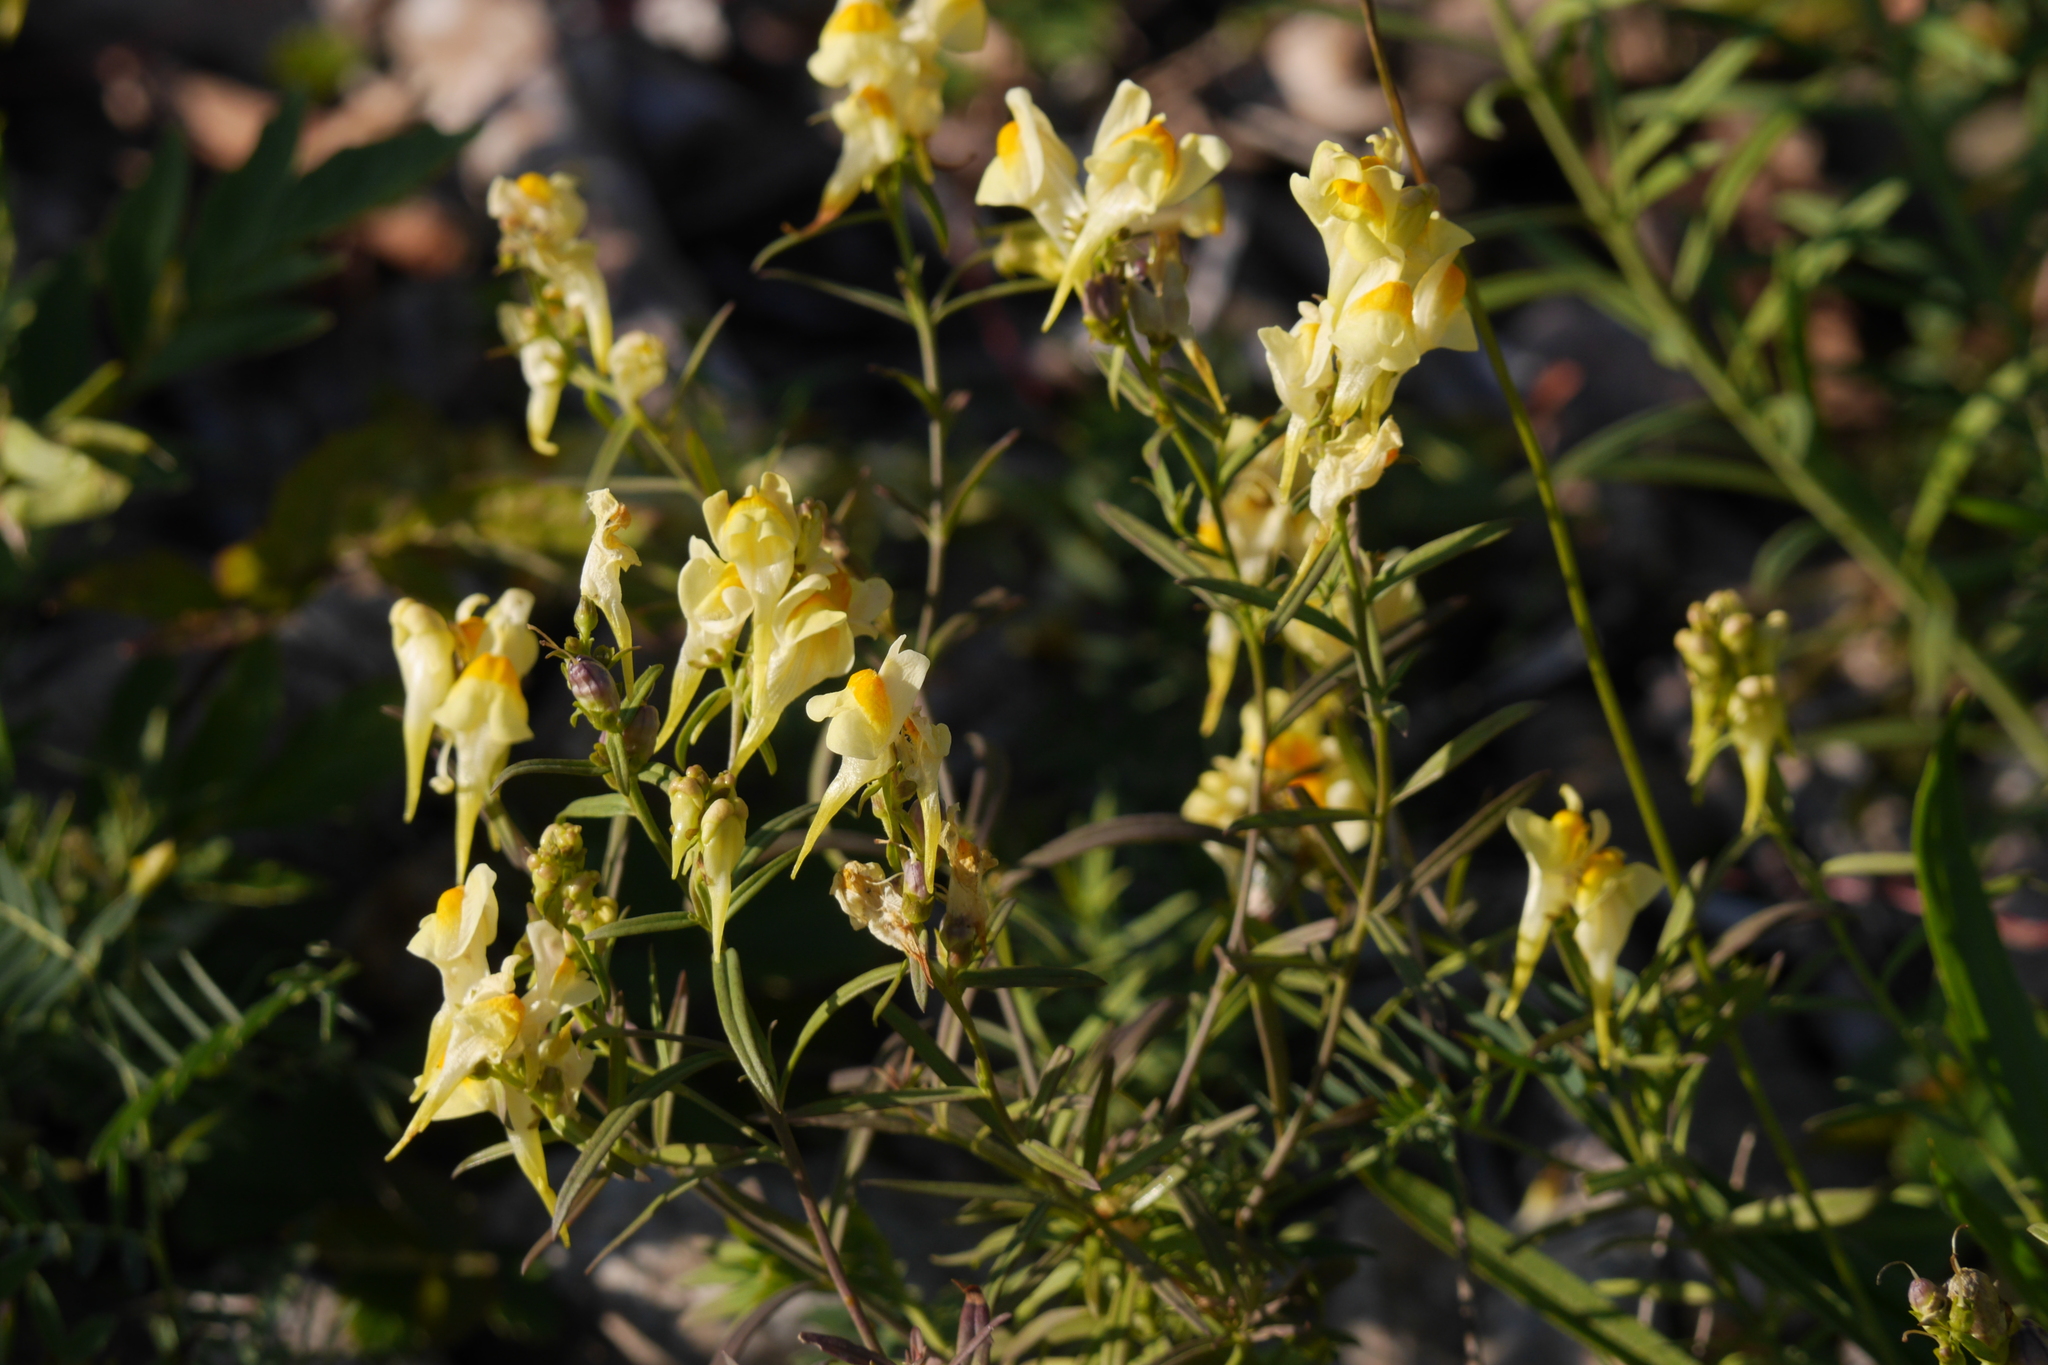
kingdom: Plantae
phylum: Tracheophyta
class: Magnoliopsida
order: Lamiales
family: Plantaginaceae
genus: Linaria
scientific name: Linaria vulgaris
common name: Butter and eggs
